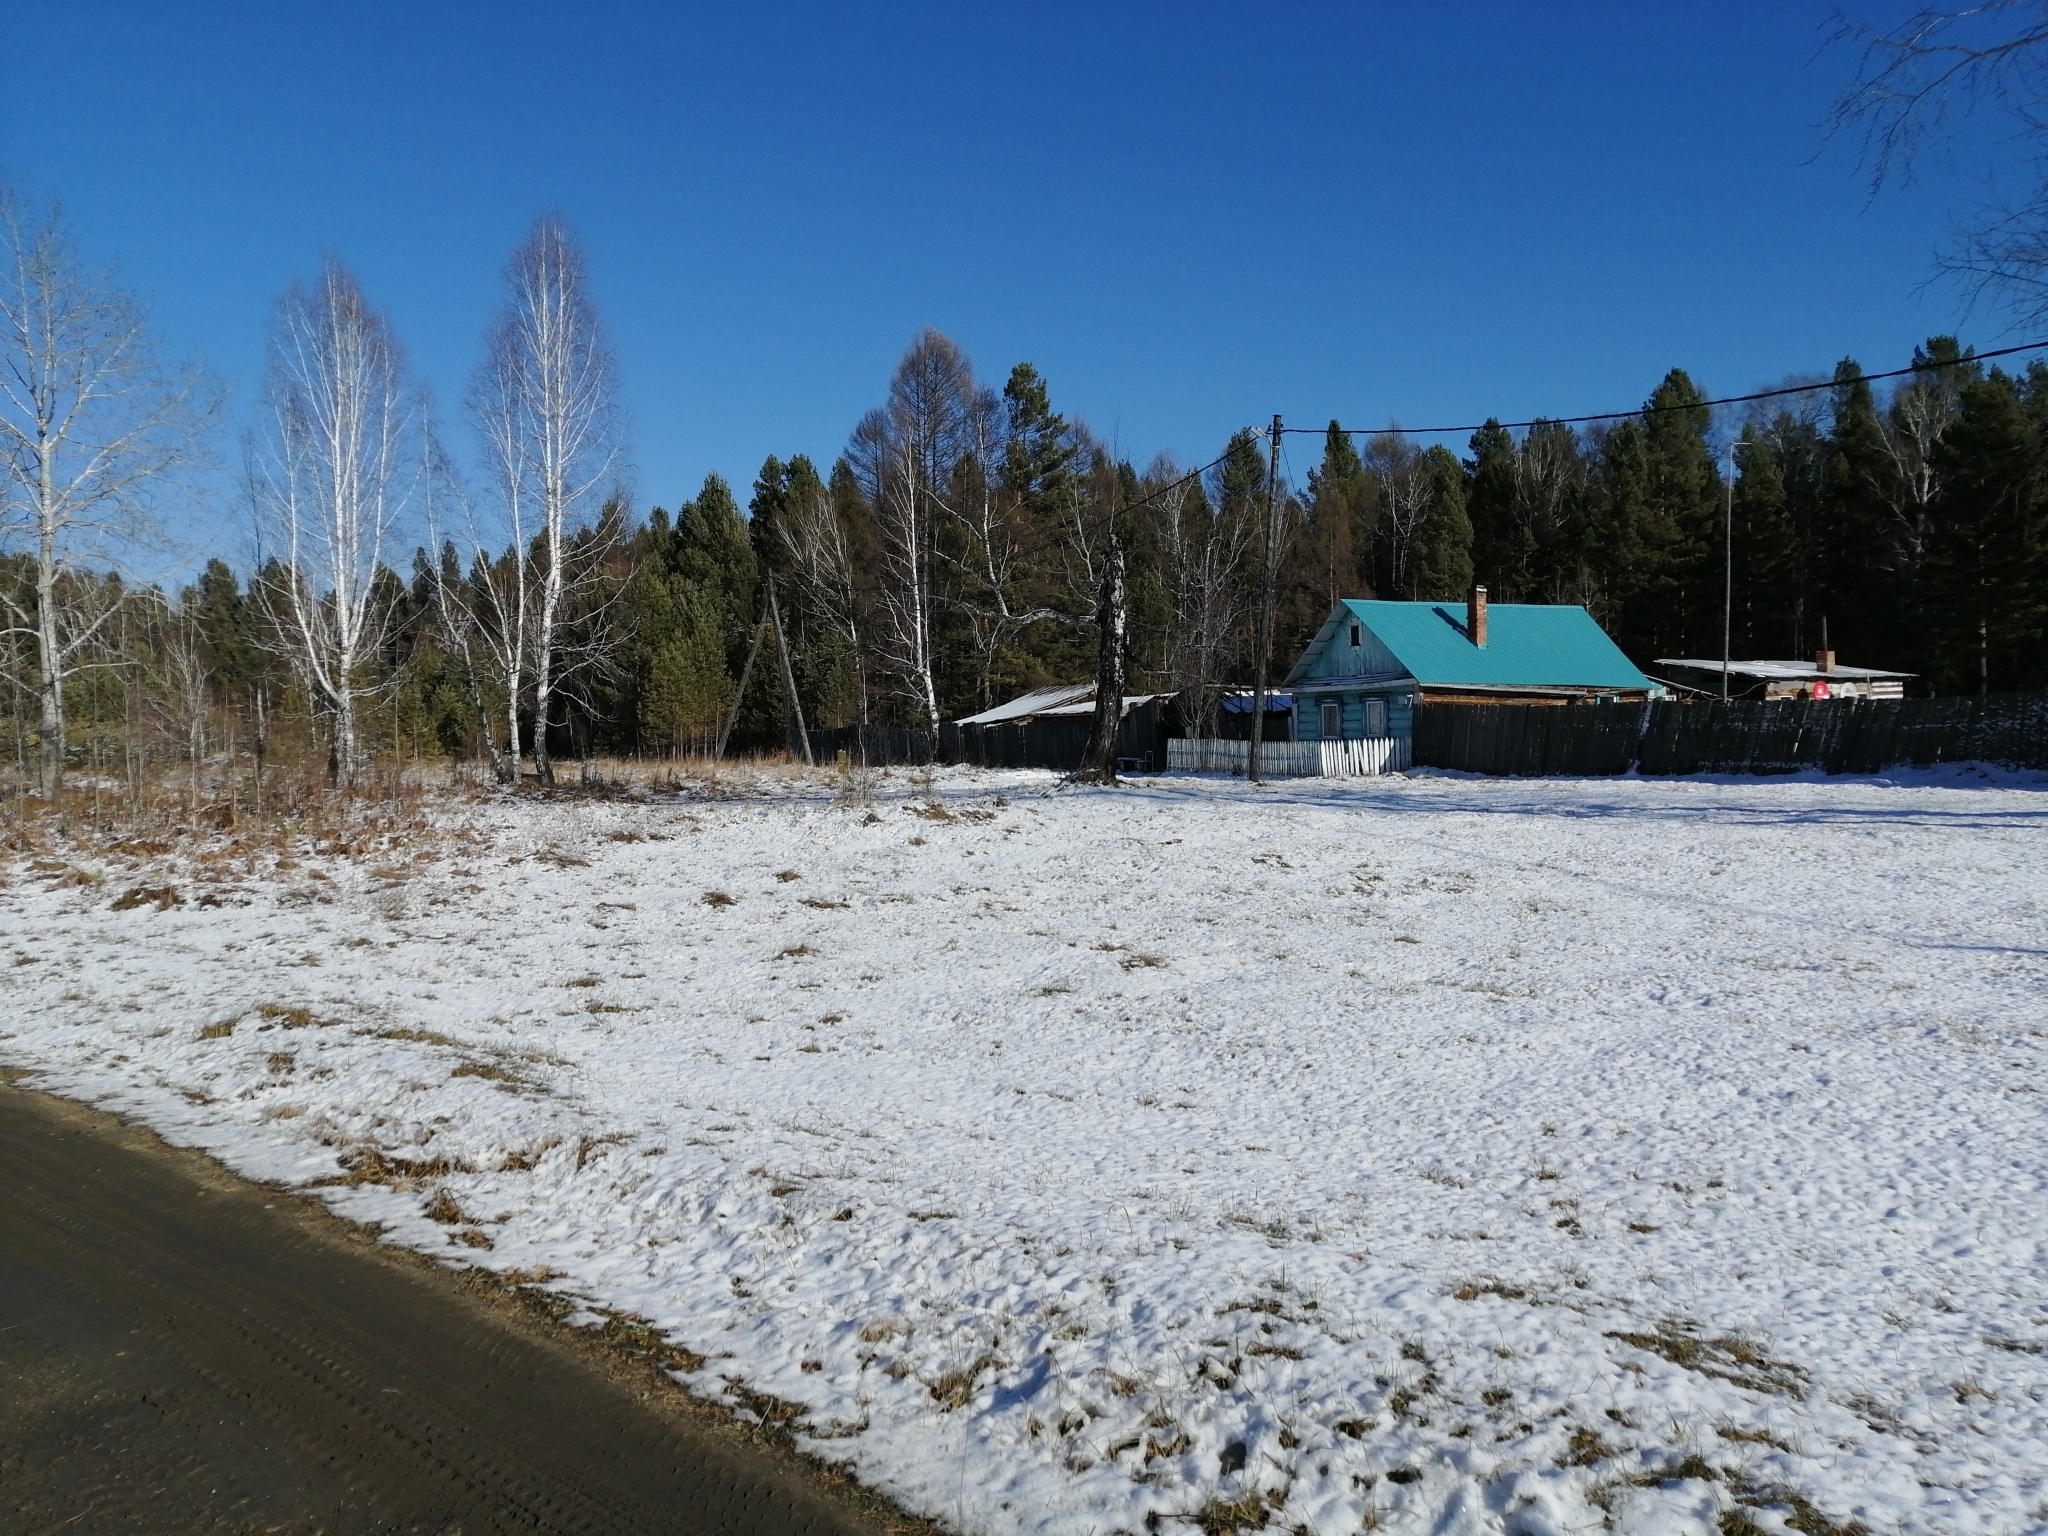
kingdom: Plantae
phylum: Tracheophyta
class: Pinopsida
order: Pinales
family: Pinaceae
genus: Pinus
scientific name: Pinus sylvestris
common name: Scots pine
